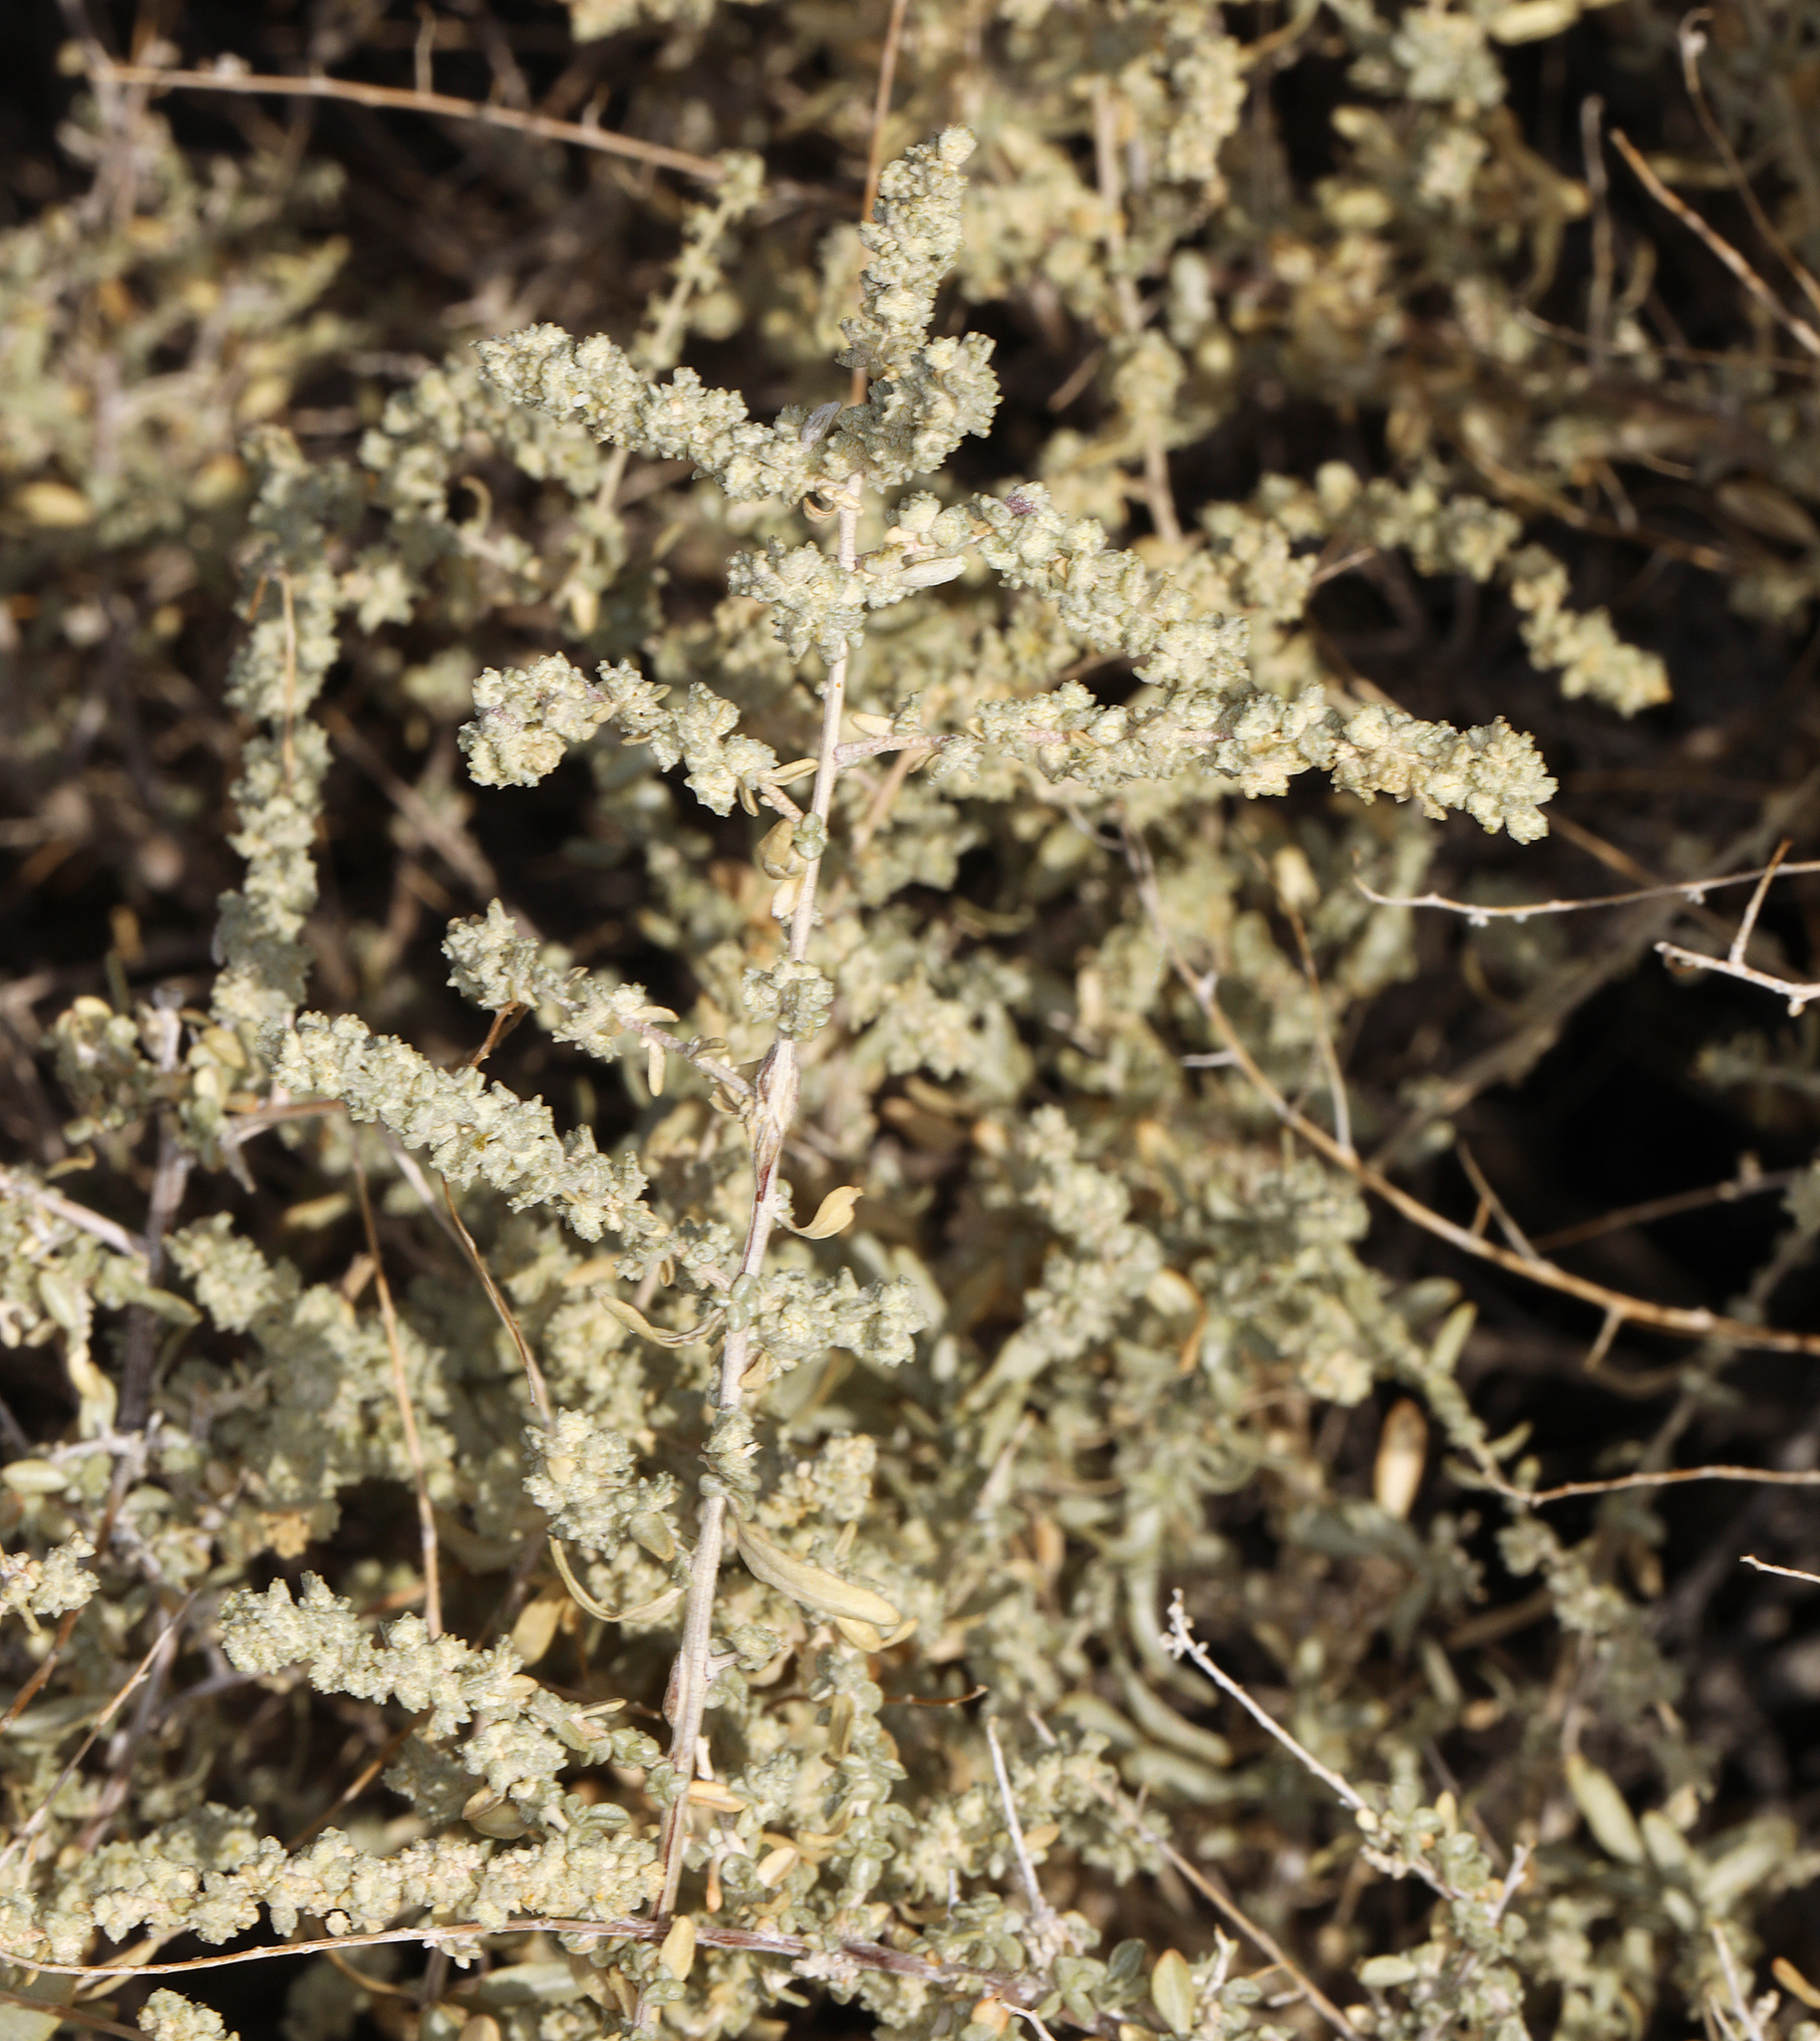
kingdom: Plantae
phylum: Tracheophyta
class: Magnoliopsida
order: Caryophyllales
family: Amaranthaceae
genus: Atriplex
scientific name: Atriplex polycarpa
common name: Desert saltbush
